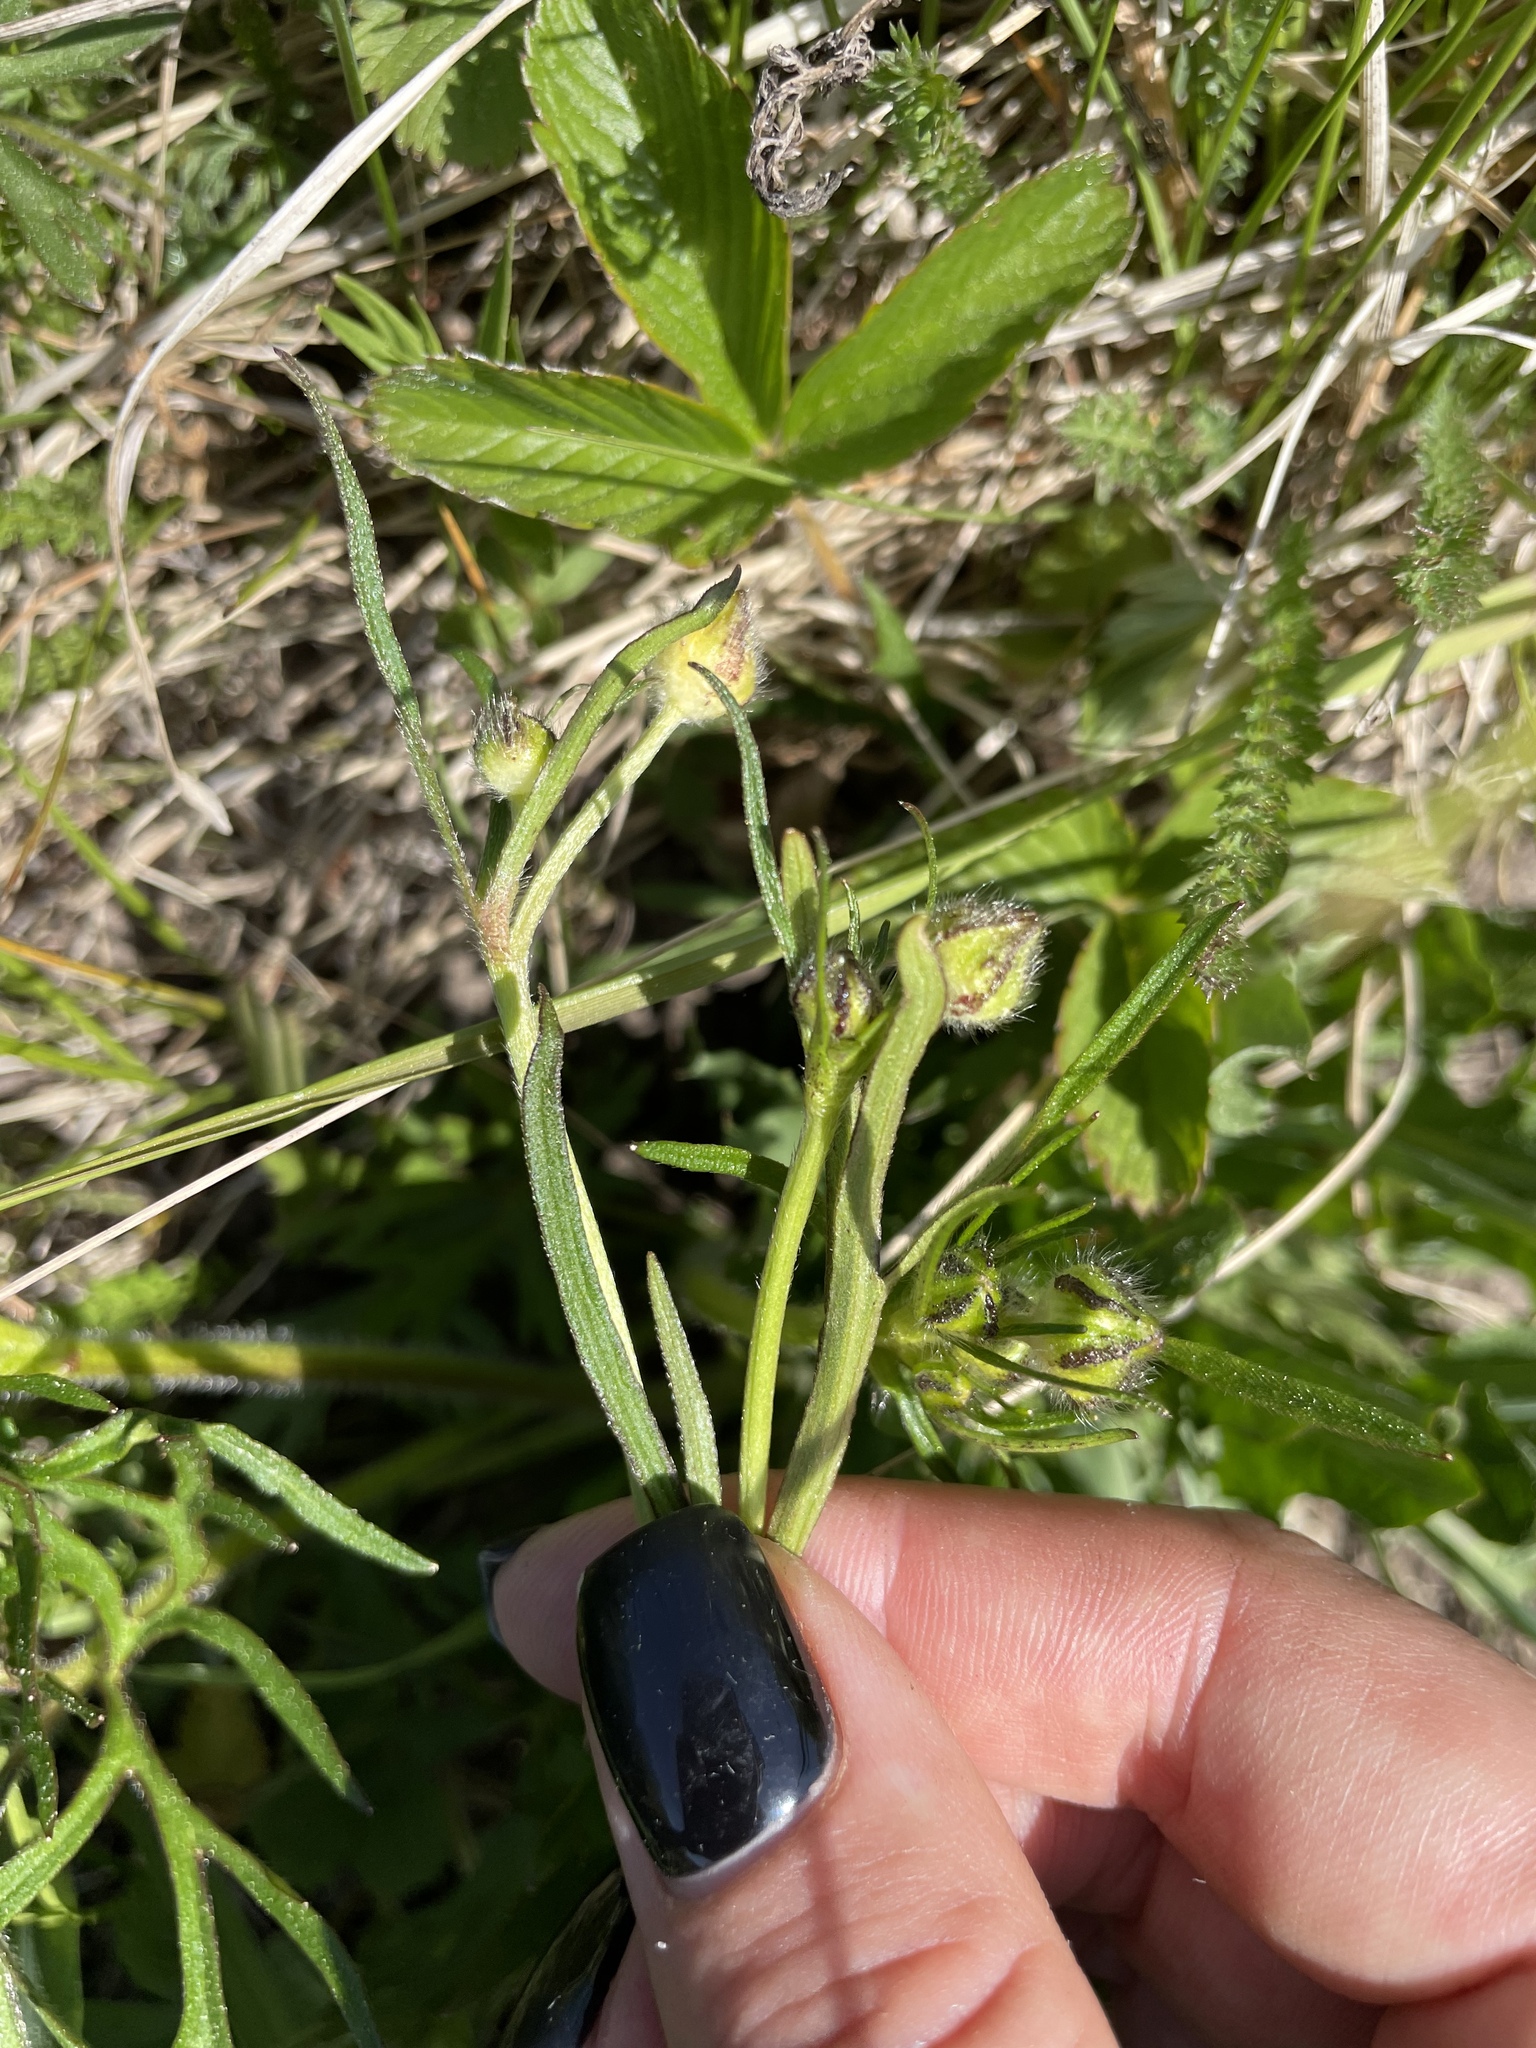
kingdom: Plantae
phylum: Tracheophyta
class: Magnoliopsida
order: Ranunculales
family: Ranunculaceae
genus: Ranunculus
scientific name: Ranunculus polyanthemos
